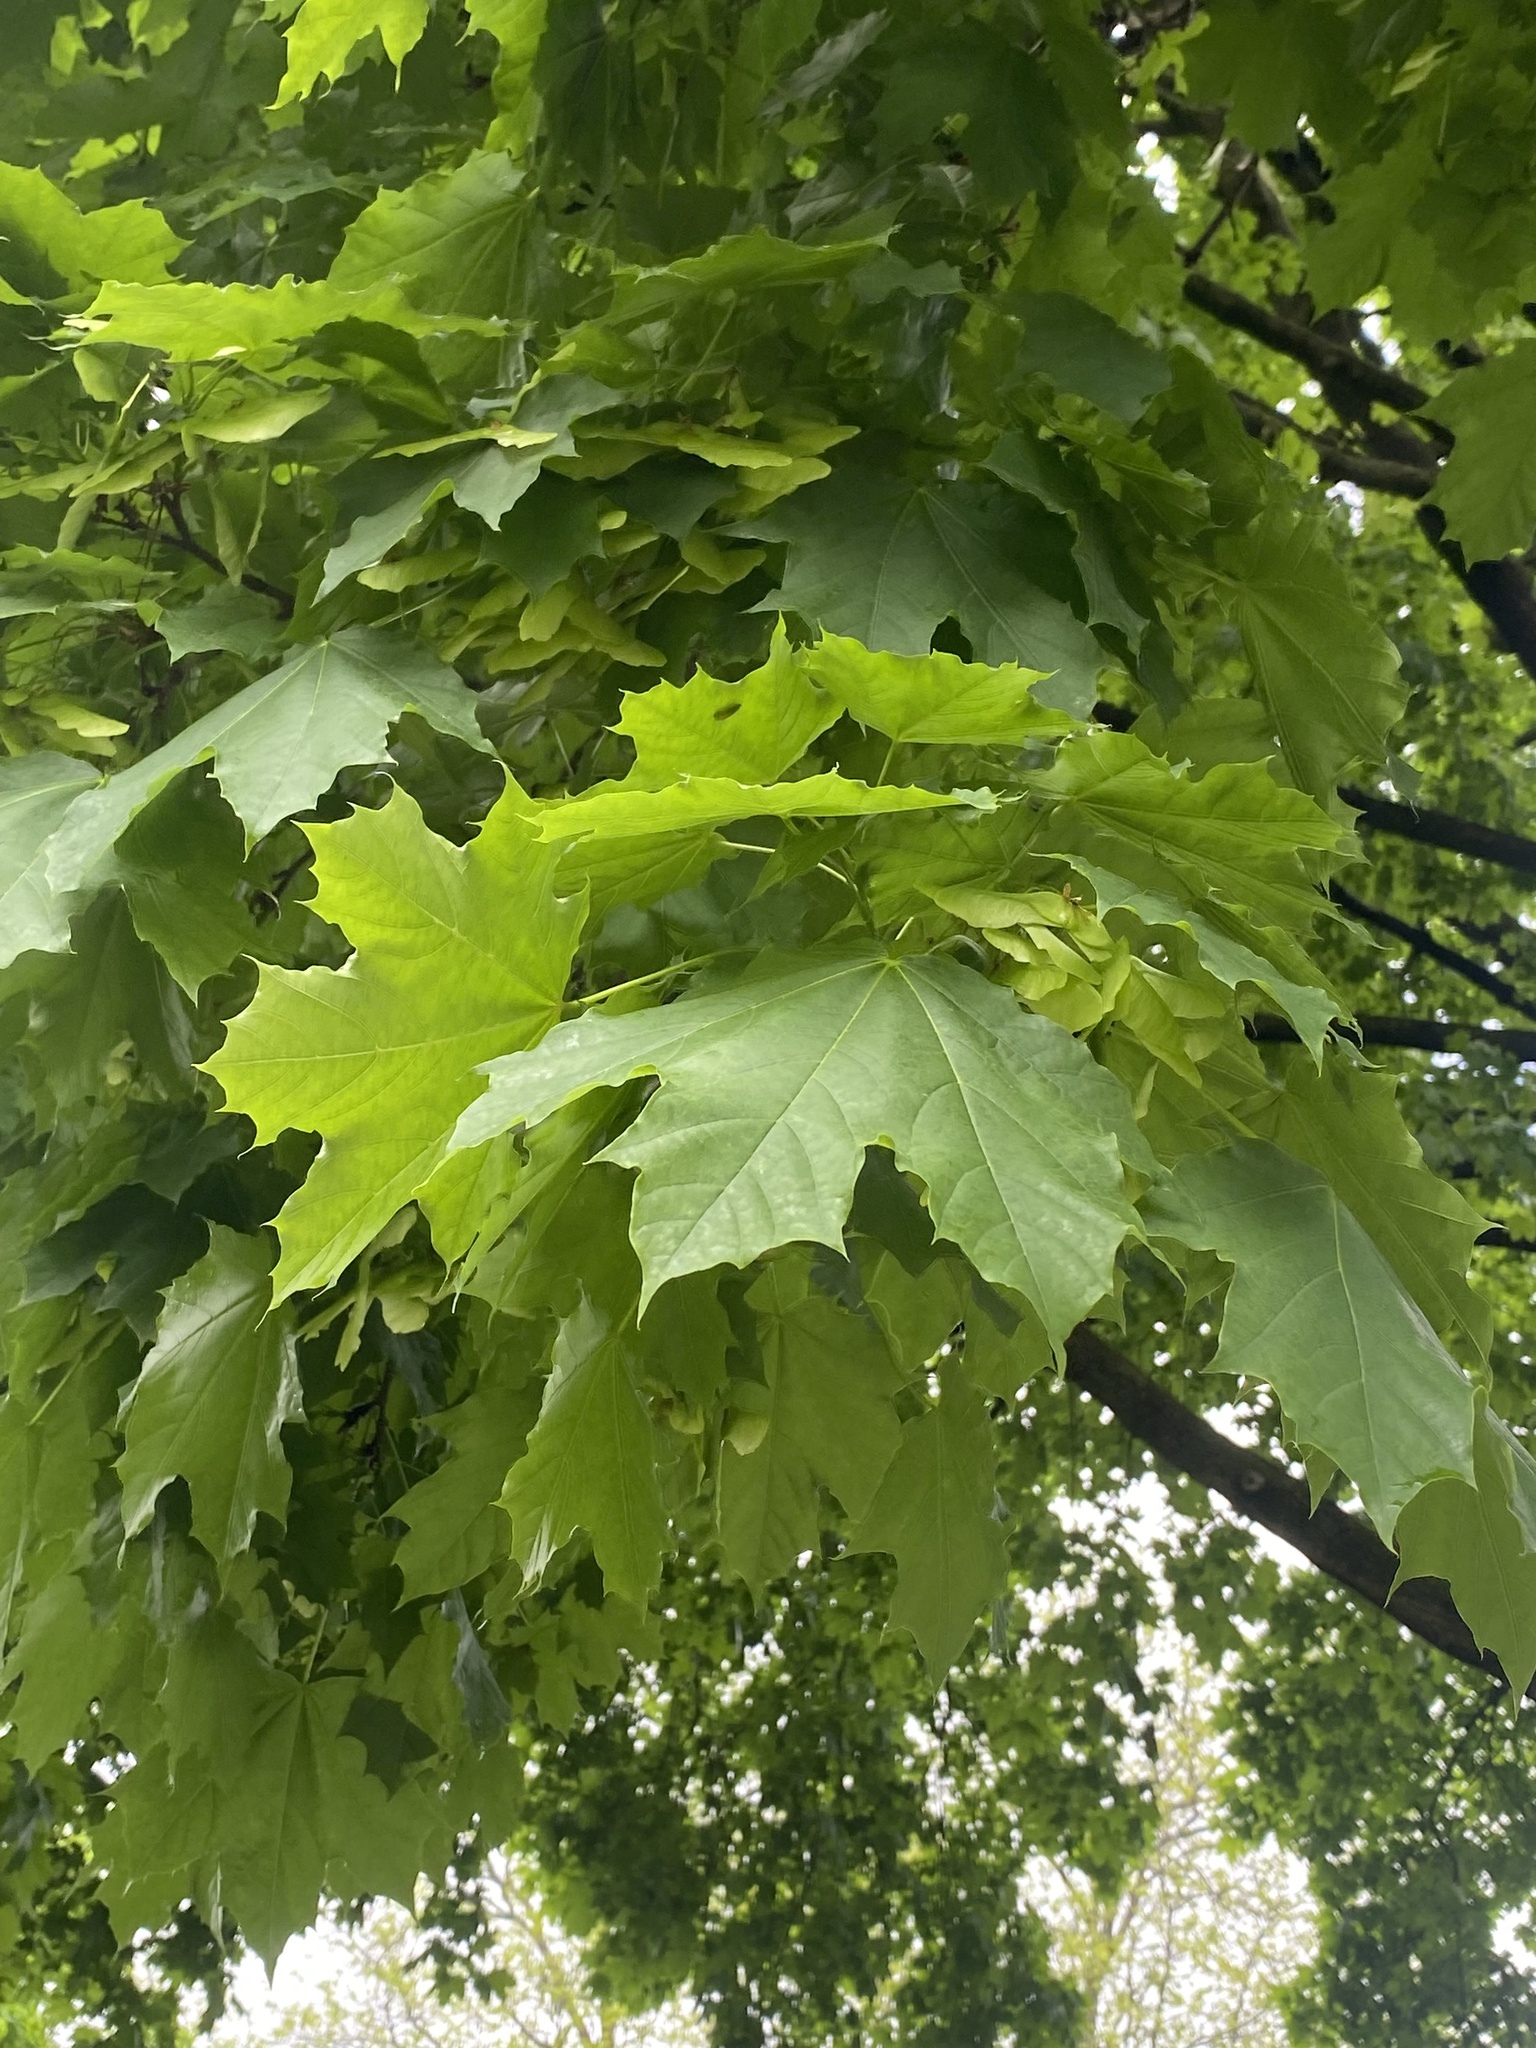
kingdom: Plantae
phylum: Tracheophyta
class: Magnoliopsida
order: Sapindales
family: Sapindaceae
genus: Acer
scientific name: Acer platanoides
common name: Norway maple
